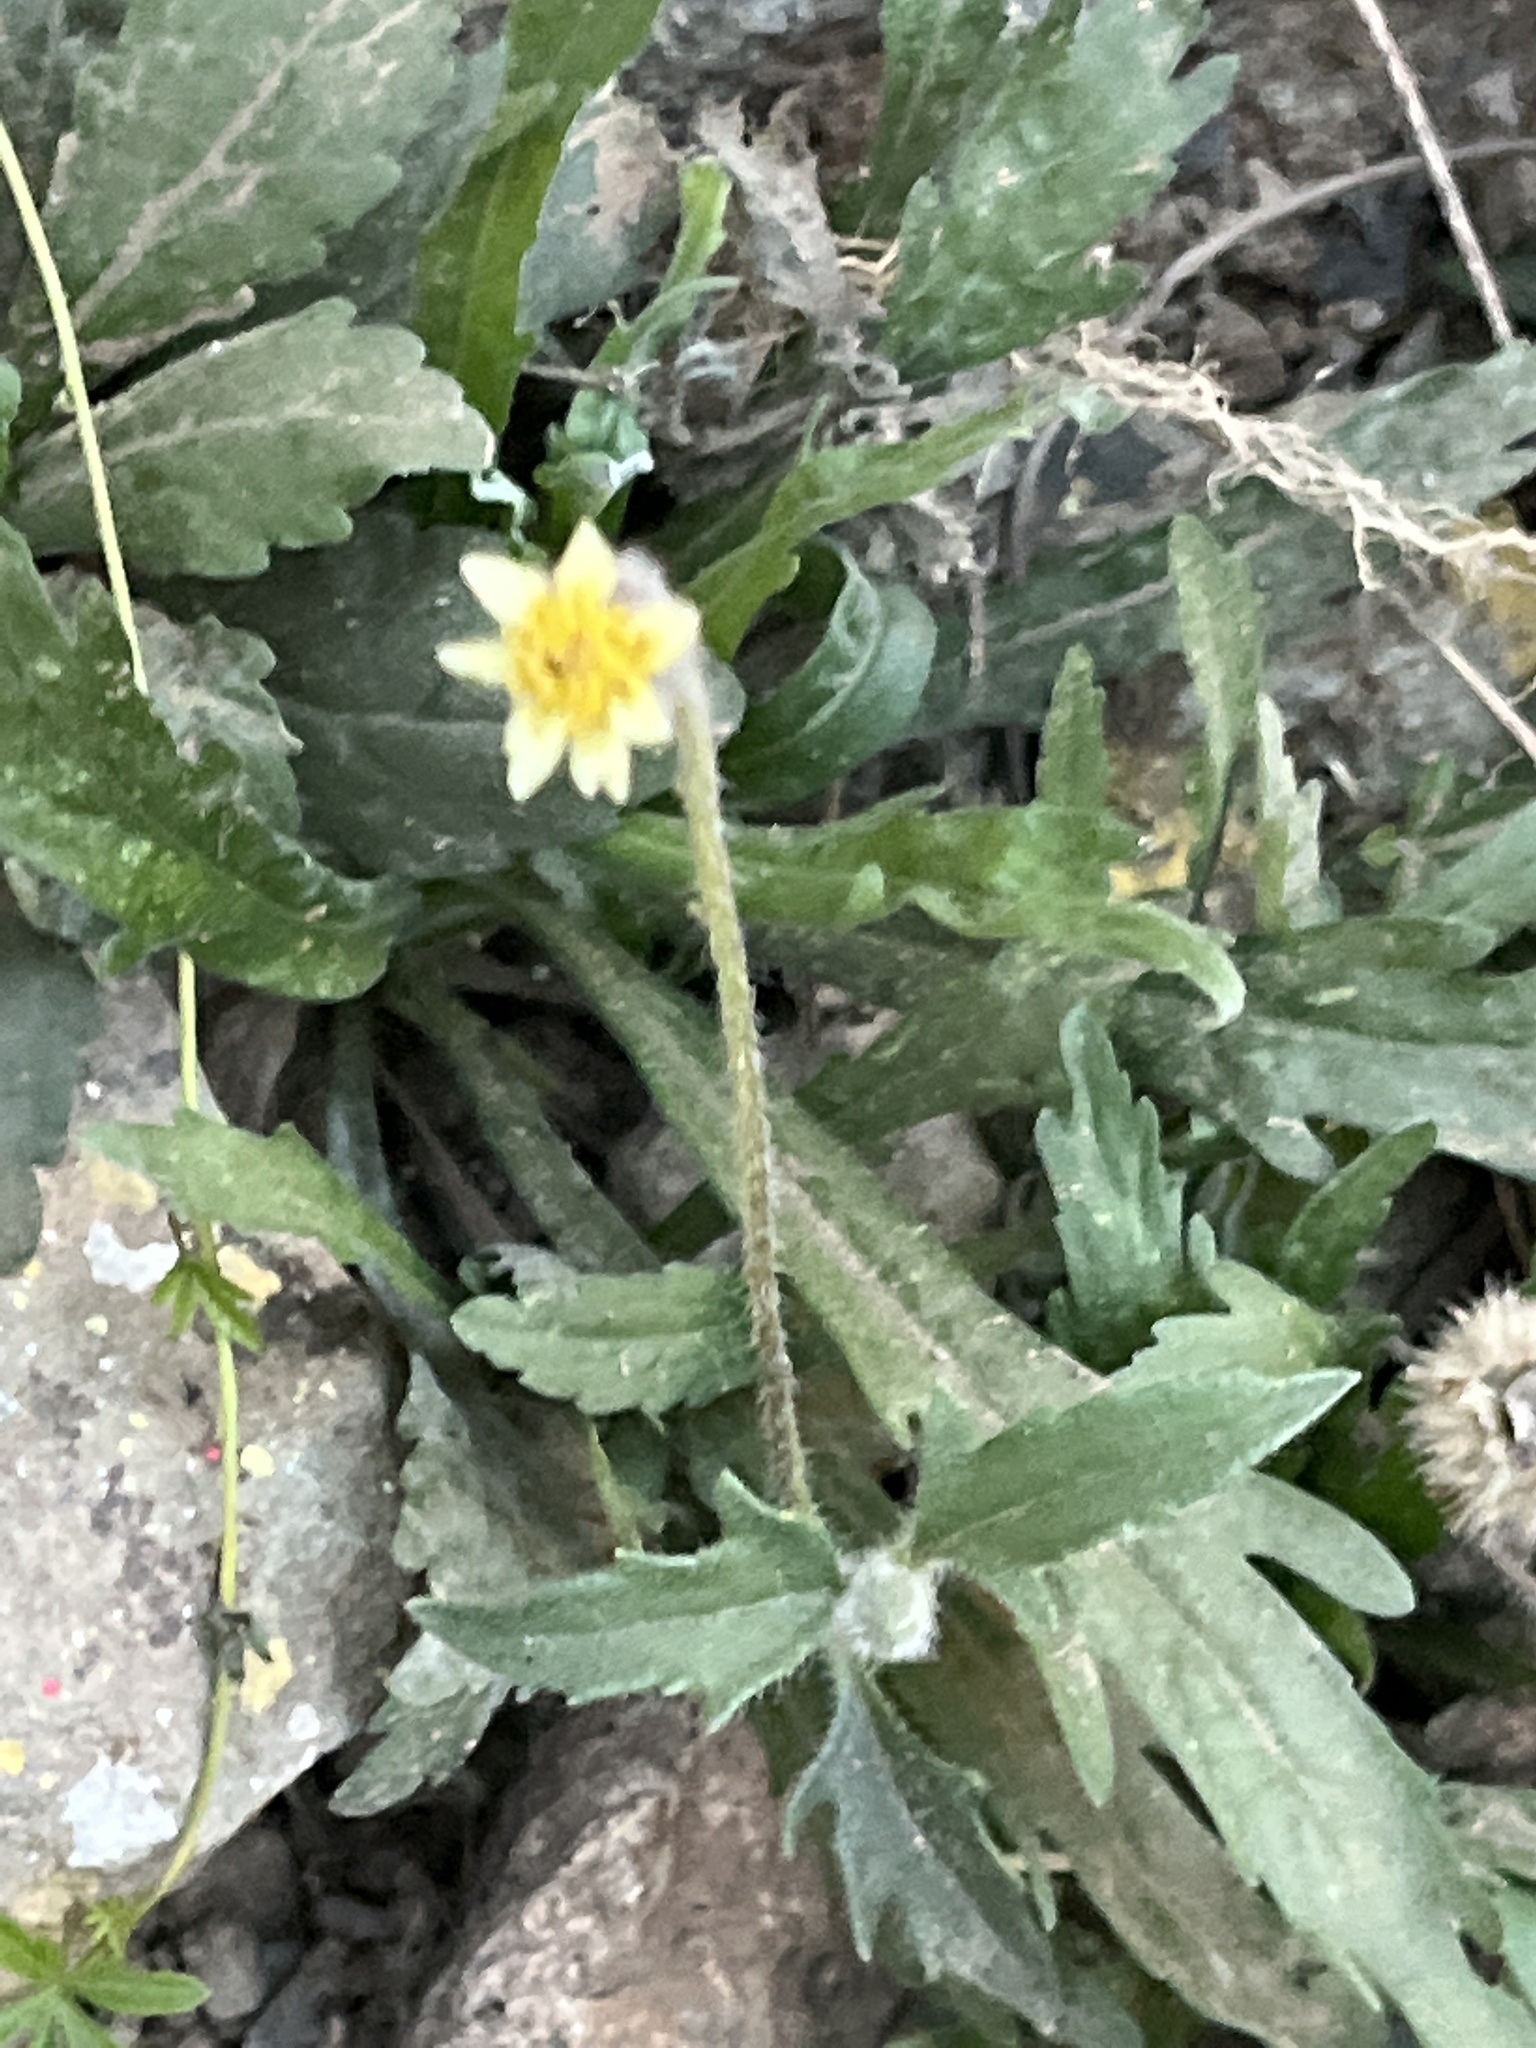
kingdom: Plantae
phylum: Tracheophyta
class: Magnoliopsida
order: Asterales
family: Asteraceae
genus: Tridax
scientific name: Tridax procumbens
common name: Coatbuttons
